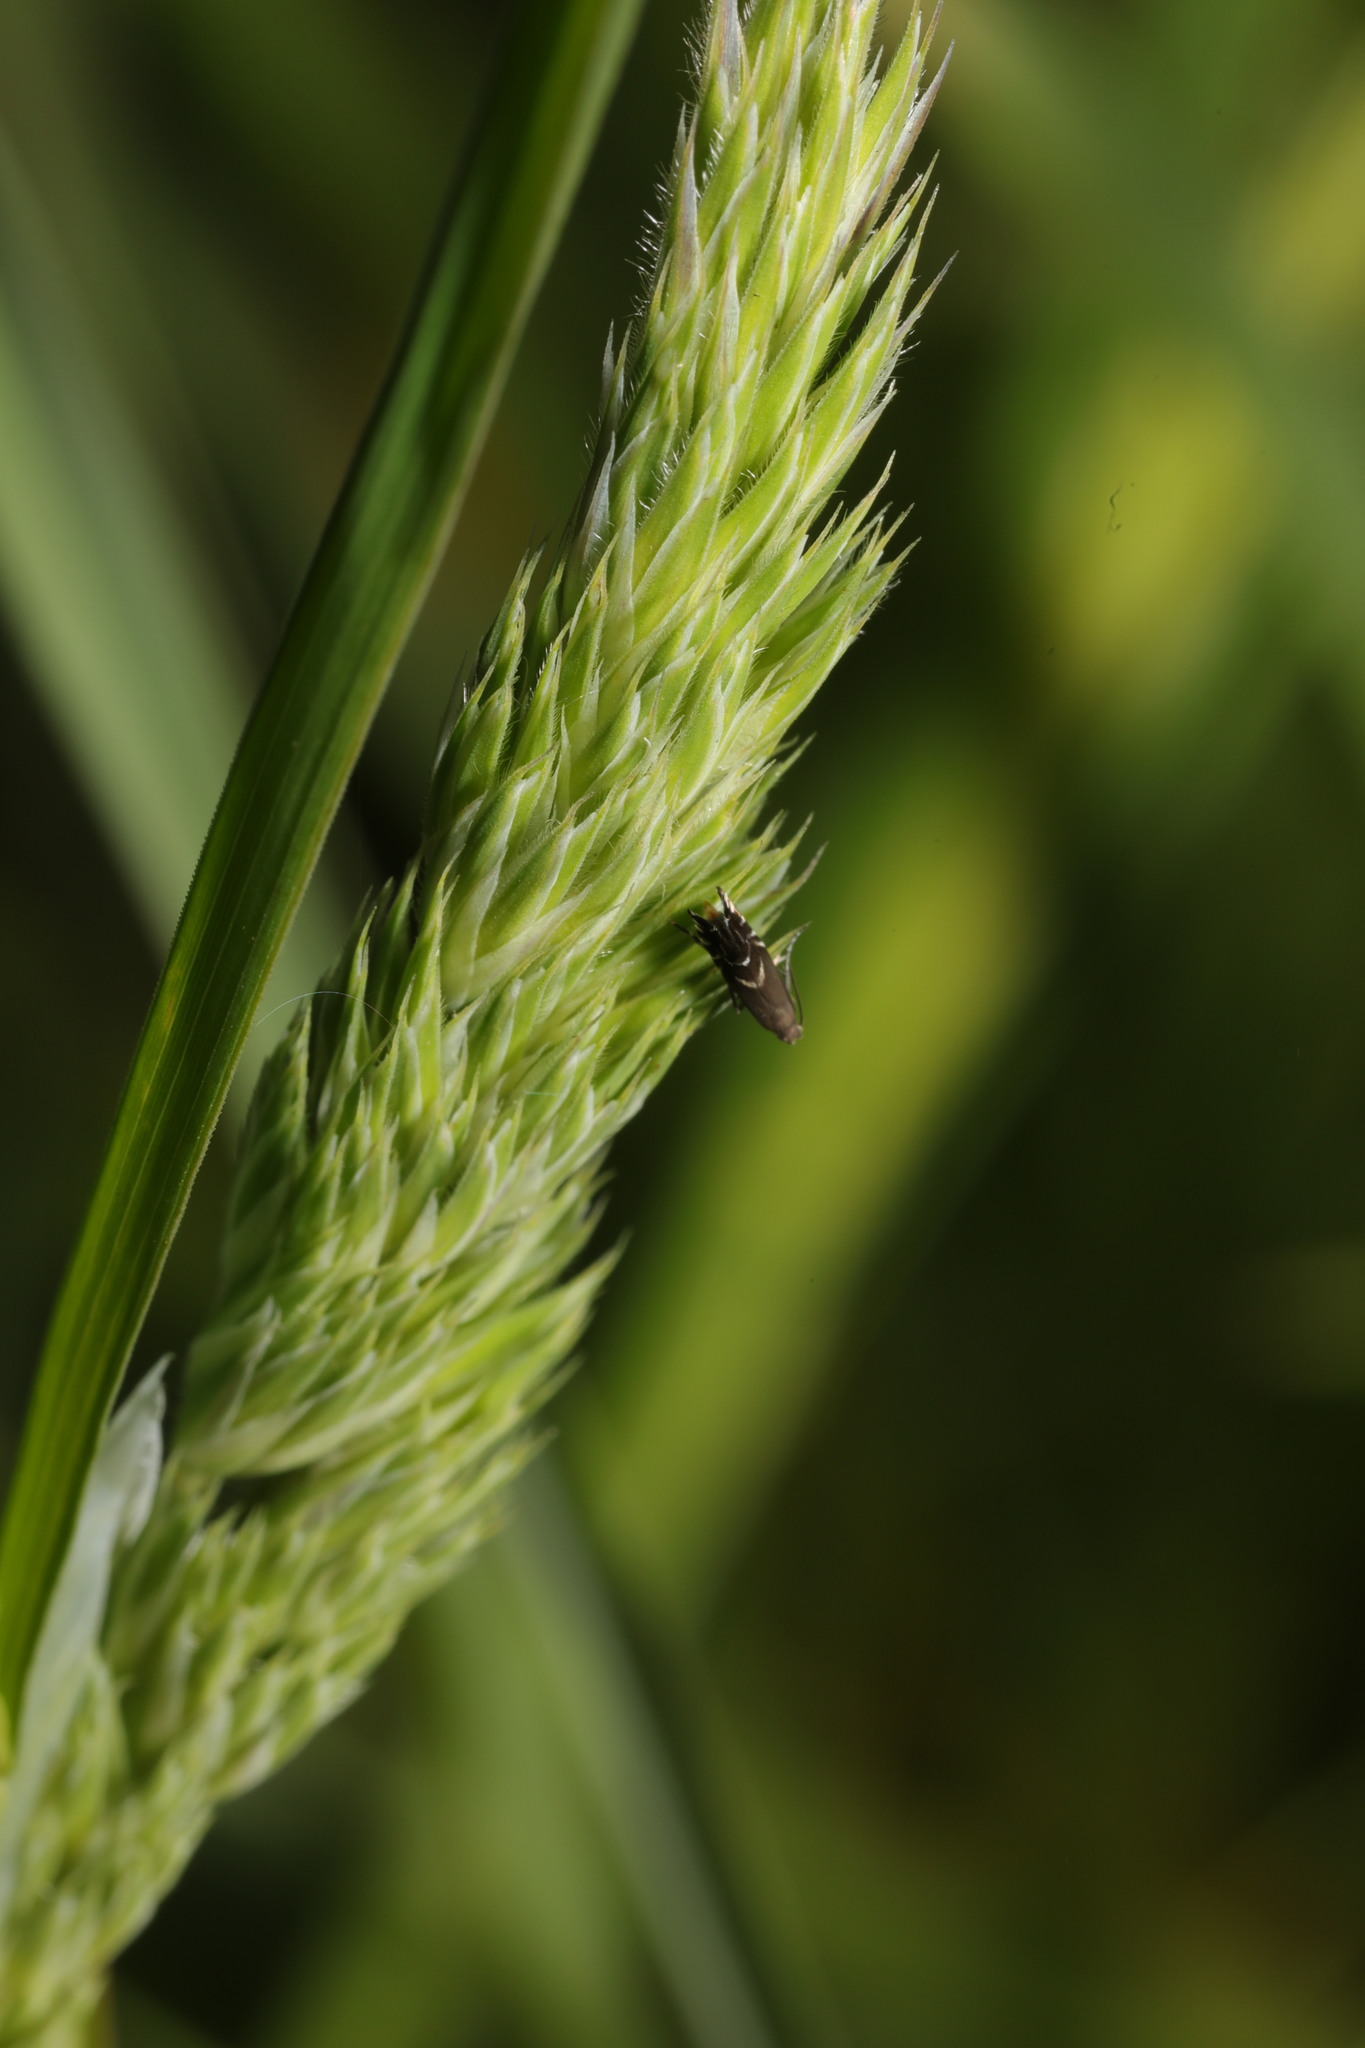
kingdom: Plantae
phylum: Tracheophyta
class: Liliopsida
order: Poales
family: Poaceae
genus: Dactylis
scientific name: Dactylis glomerata
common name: Orchardgrass
